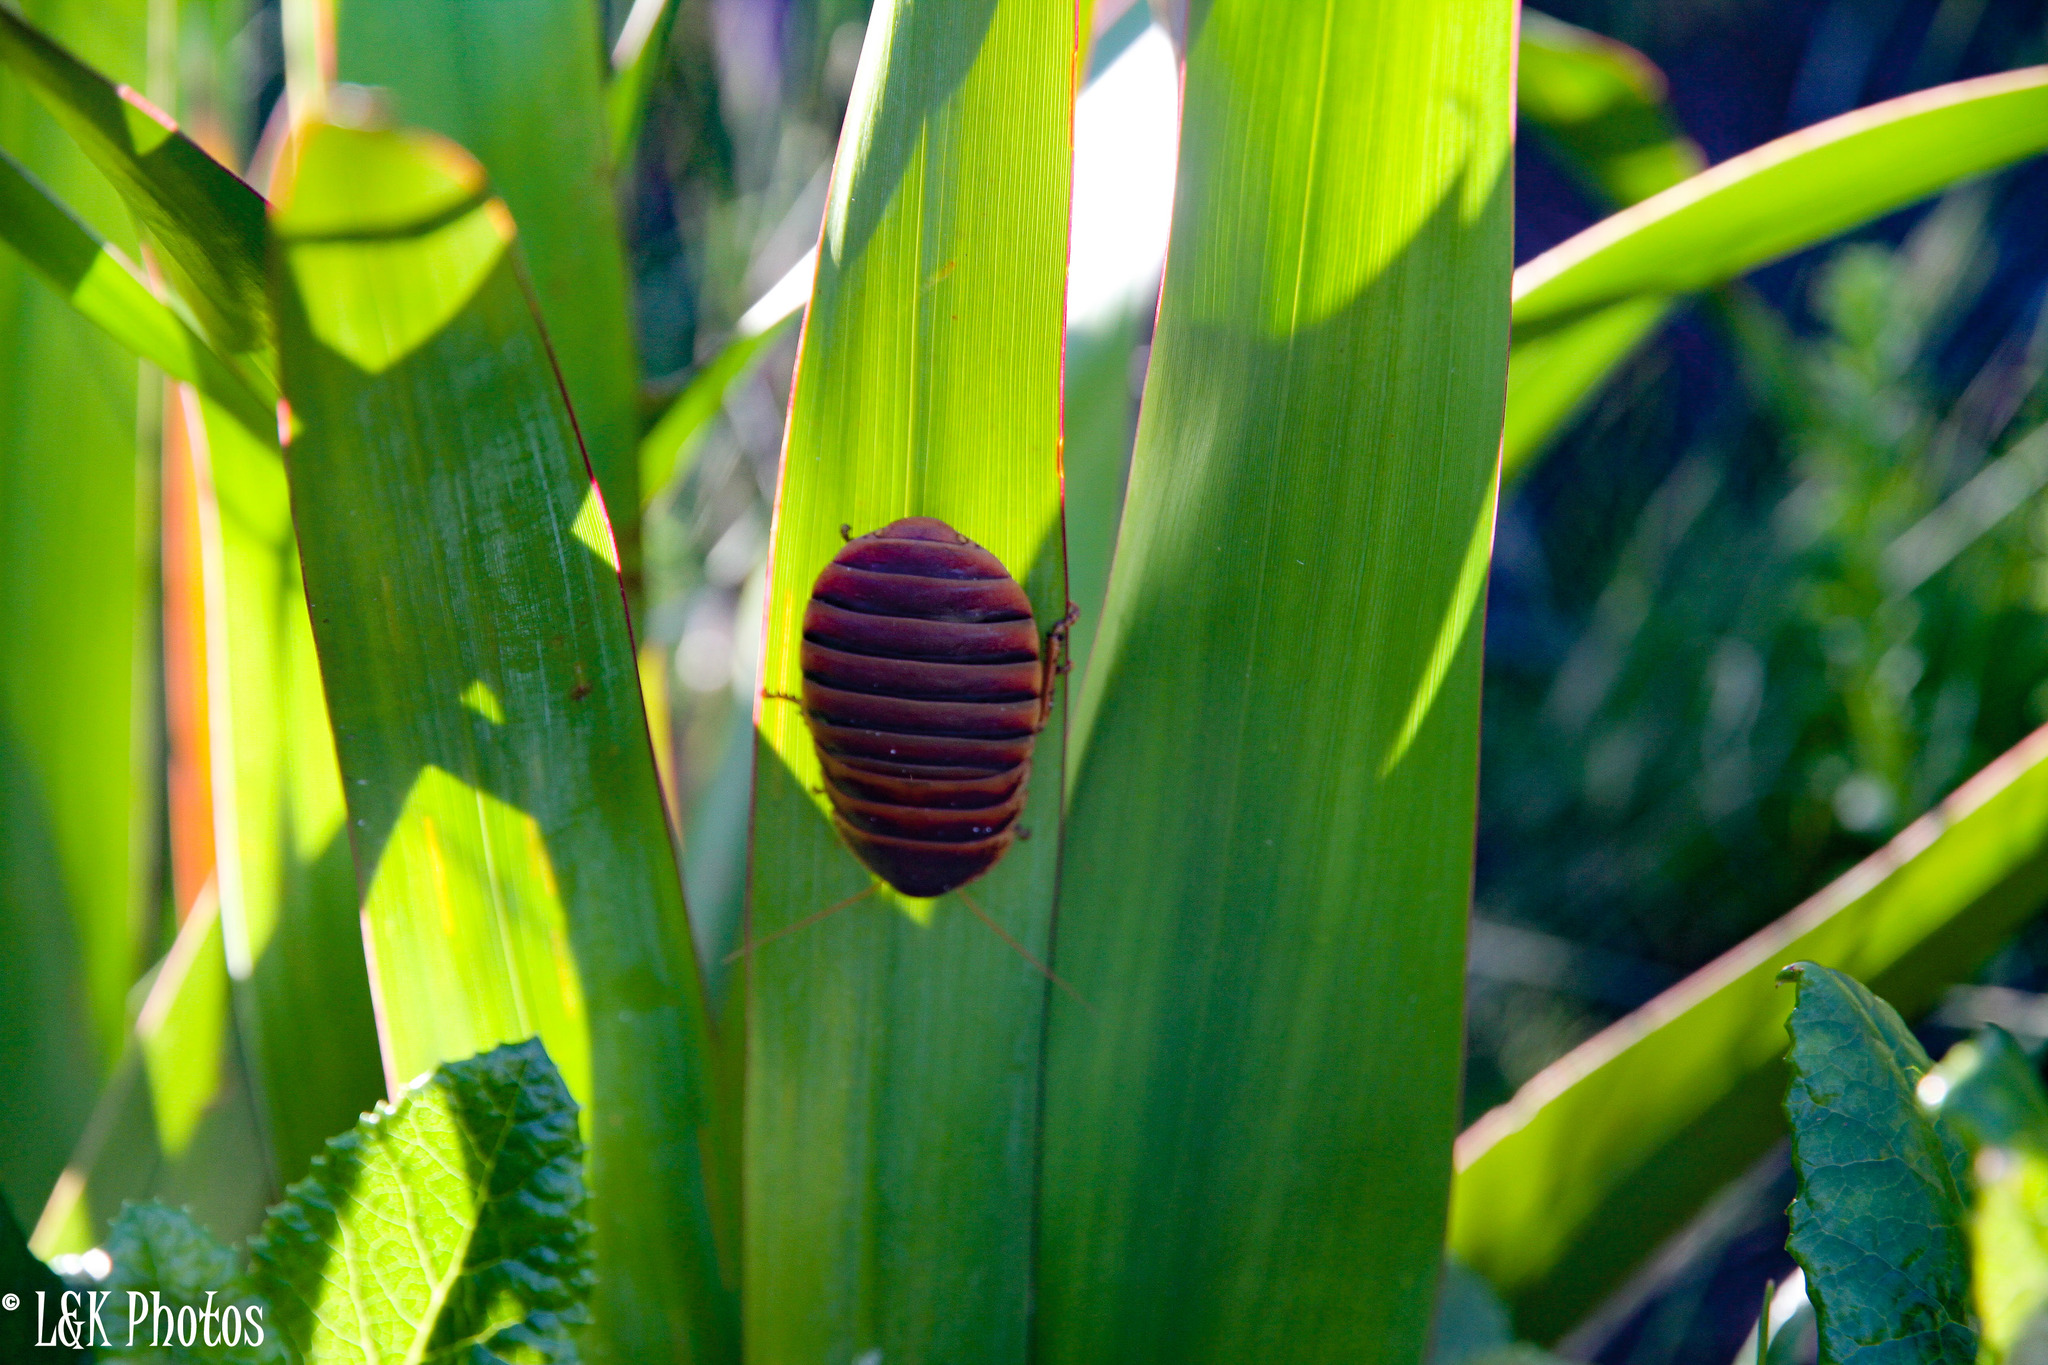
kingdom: Animalia
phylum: Arthropoda
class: Insecta
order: Blattodea
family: Blaberidae
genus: Aptera
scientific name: Aptera fusca
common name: Cape mountain cockroach
